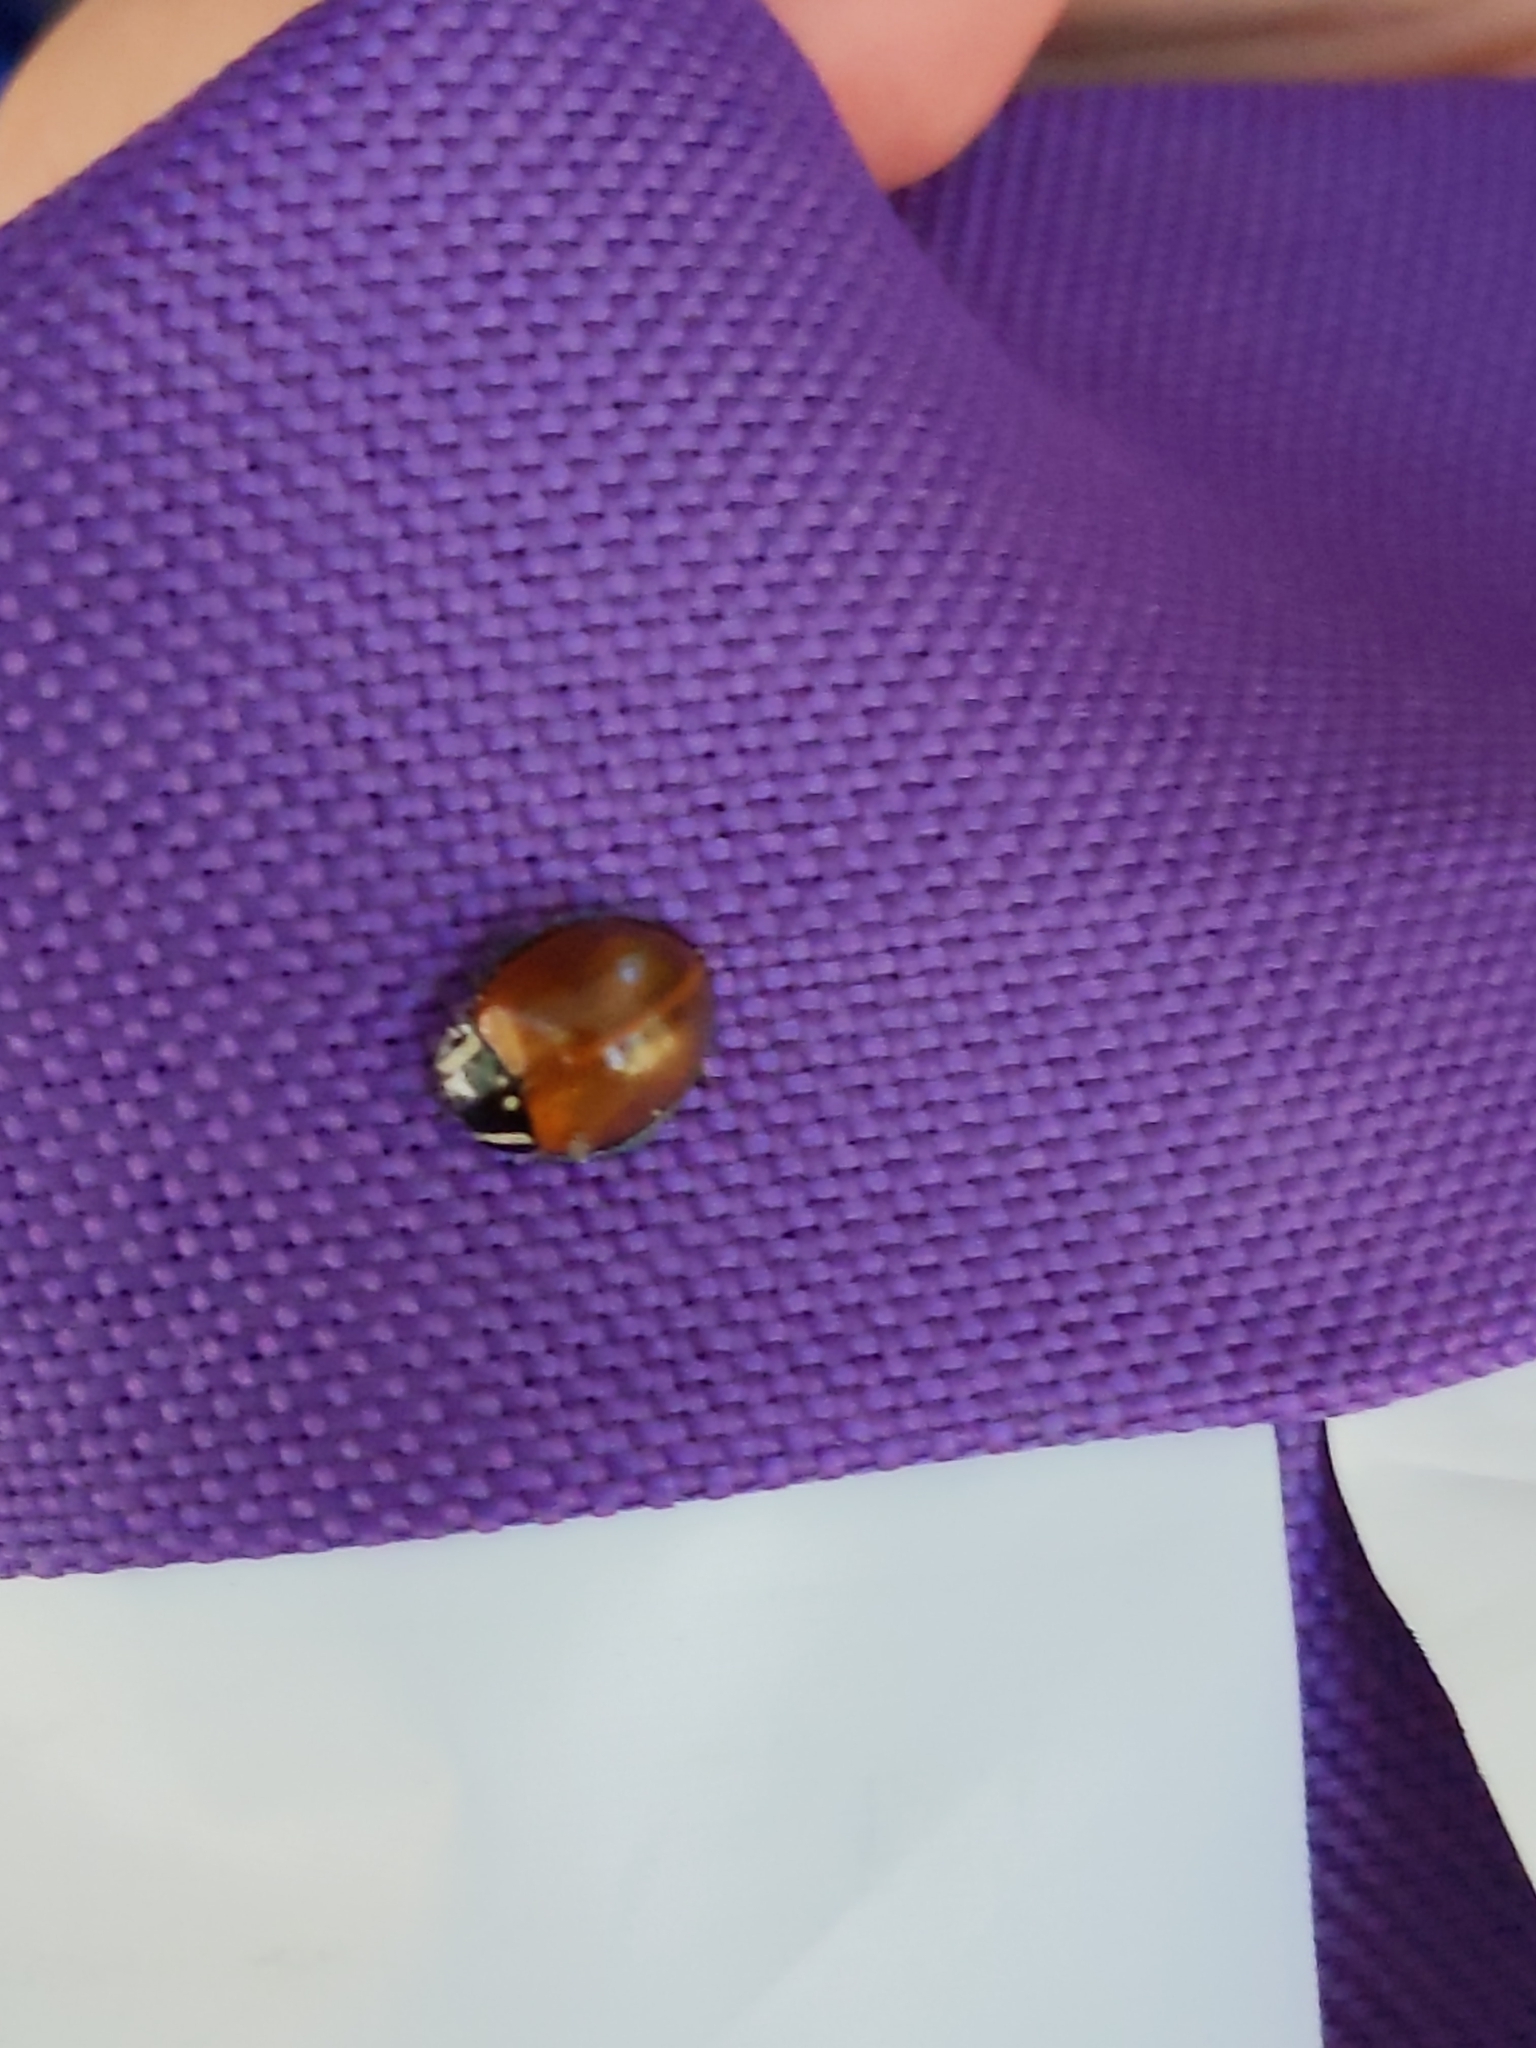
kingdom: Animalia
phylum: Arthropoda
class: Insecta
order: Coleoptera
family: Coccinellidae
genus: Anatis
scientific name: Anatis lecontei
